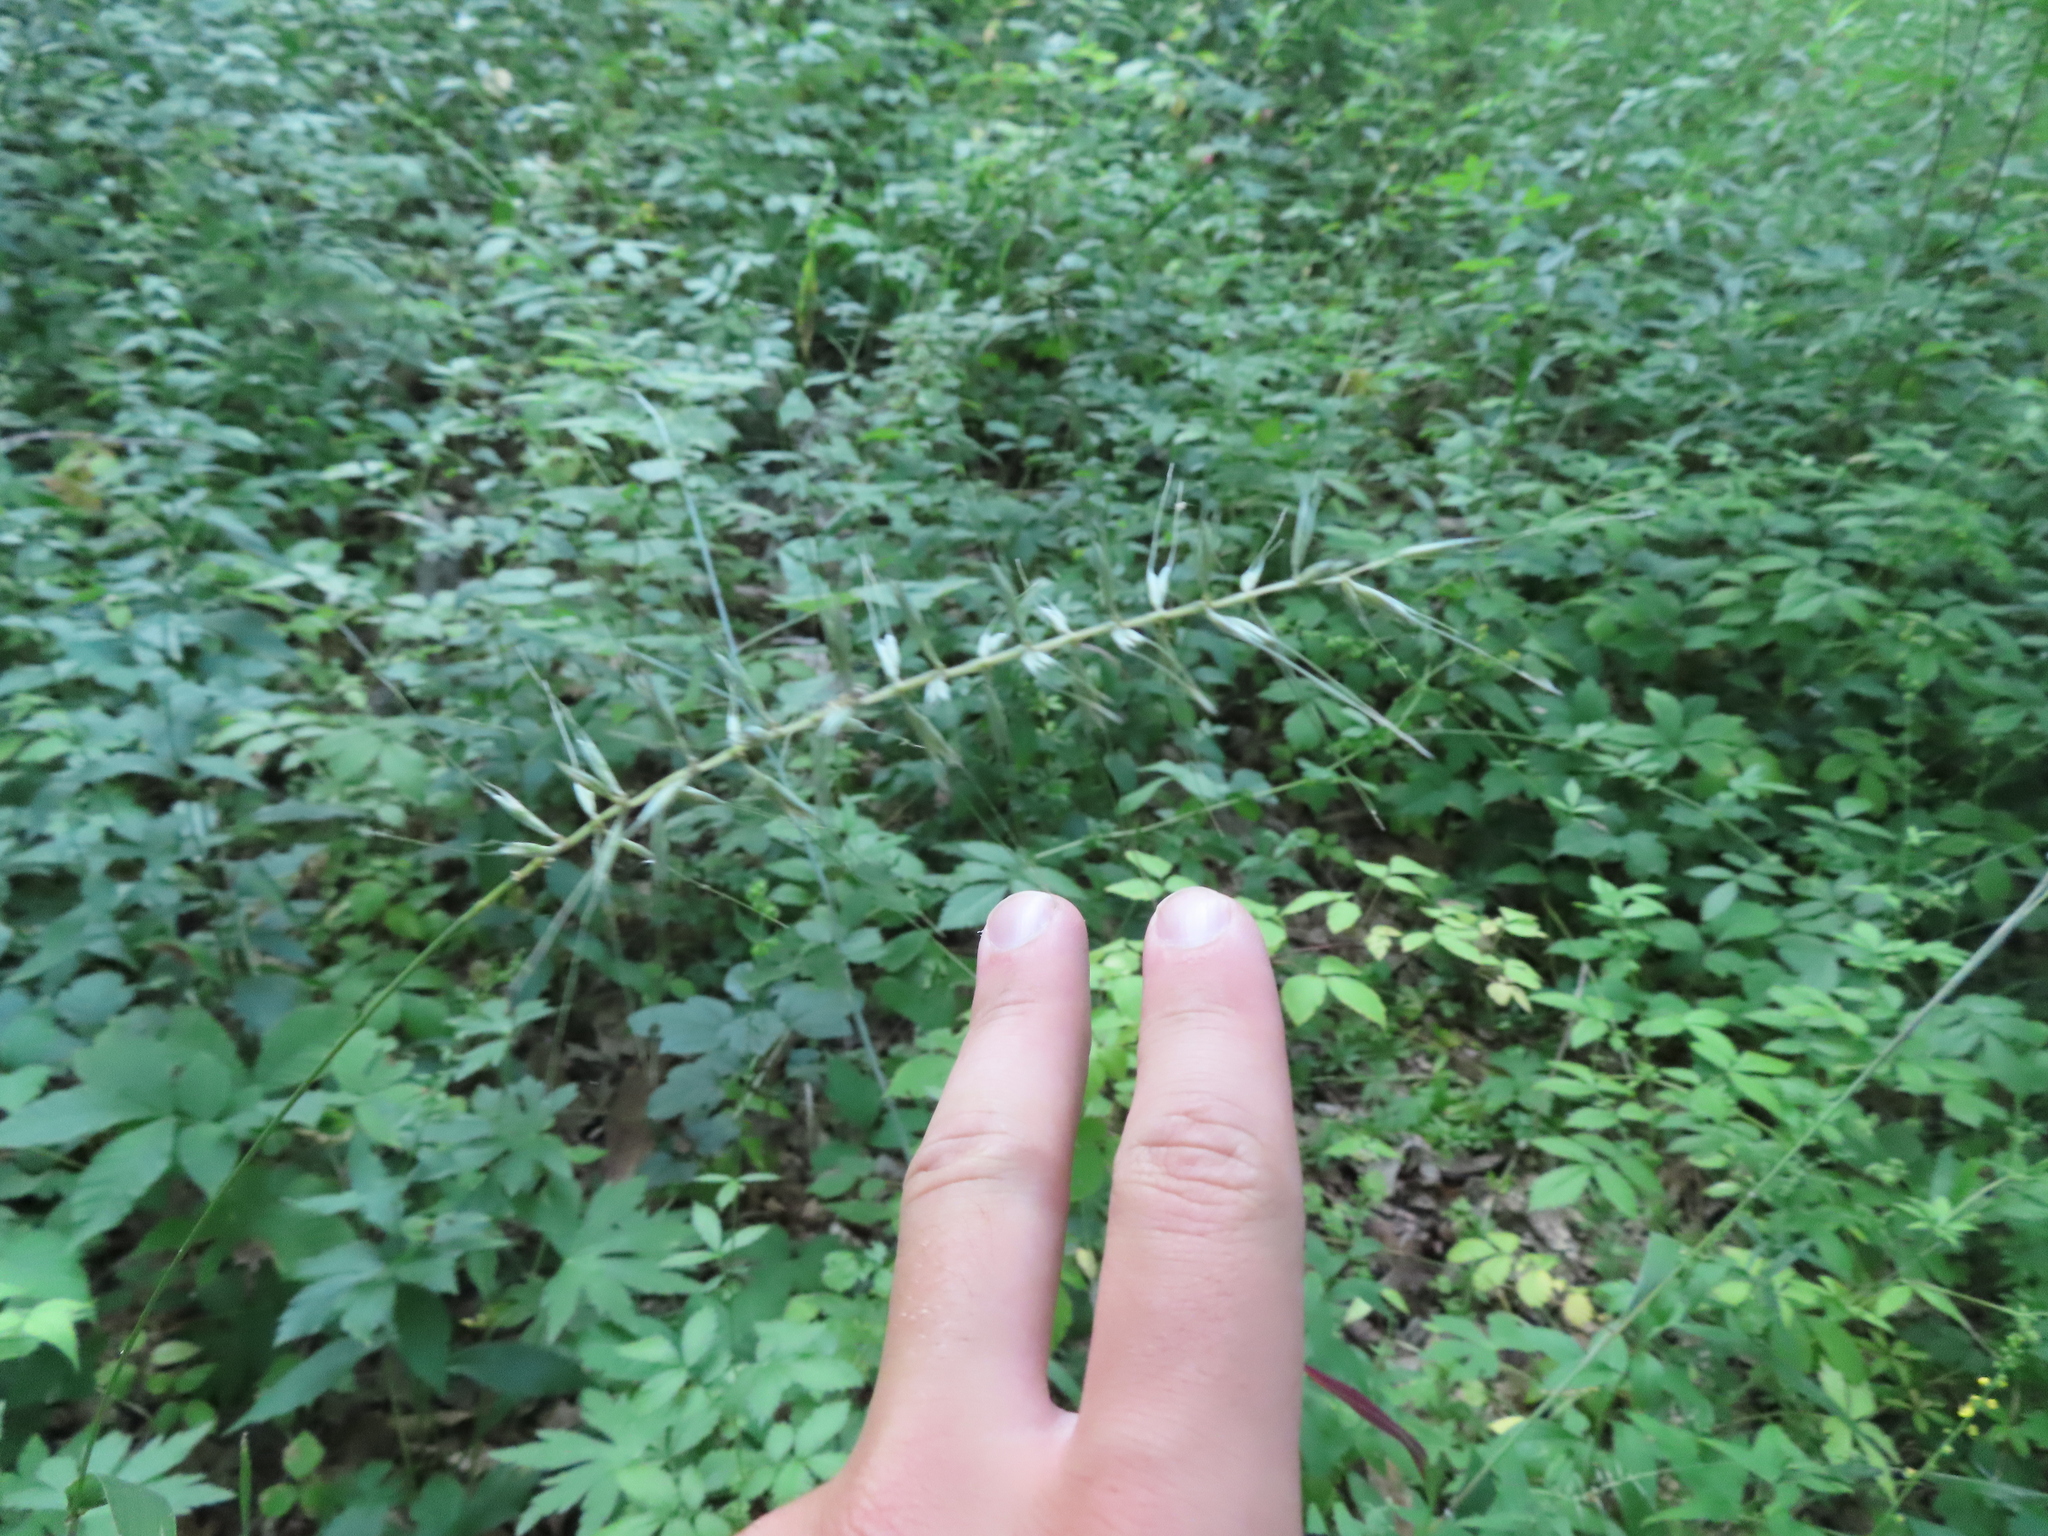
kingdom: Plantae
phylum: Tracheophyta
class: Liliopsida
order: Poales
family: Poaceae
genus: Elymus
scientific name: Elymus hystrix
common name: Bottlebrush grass
